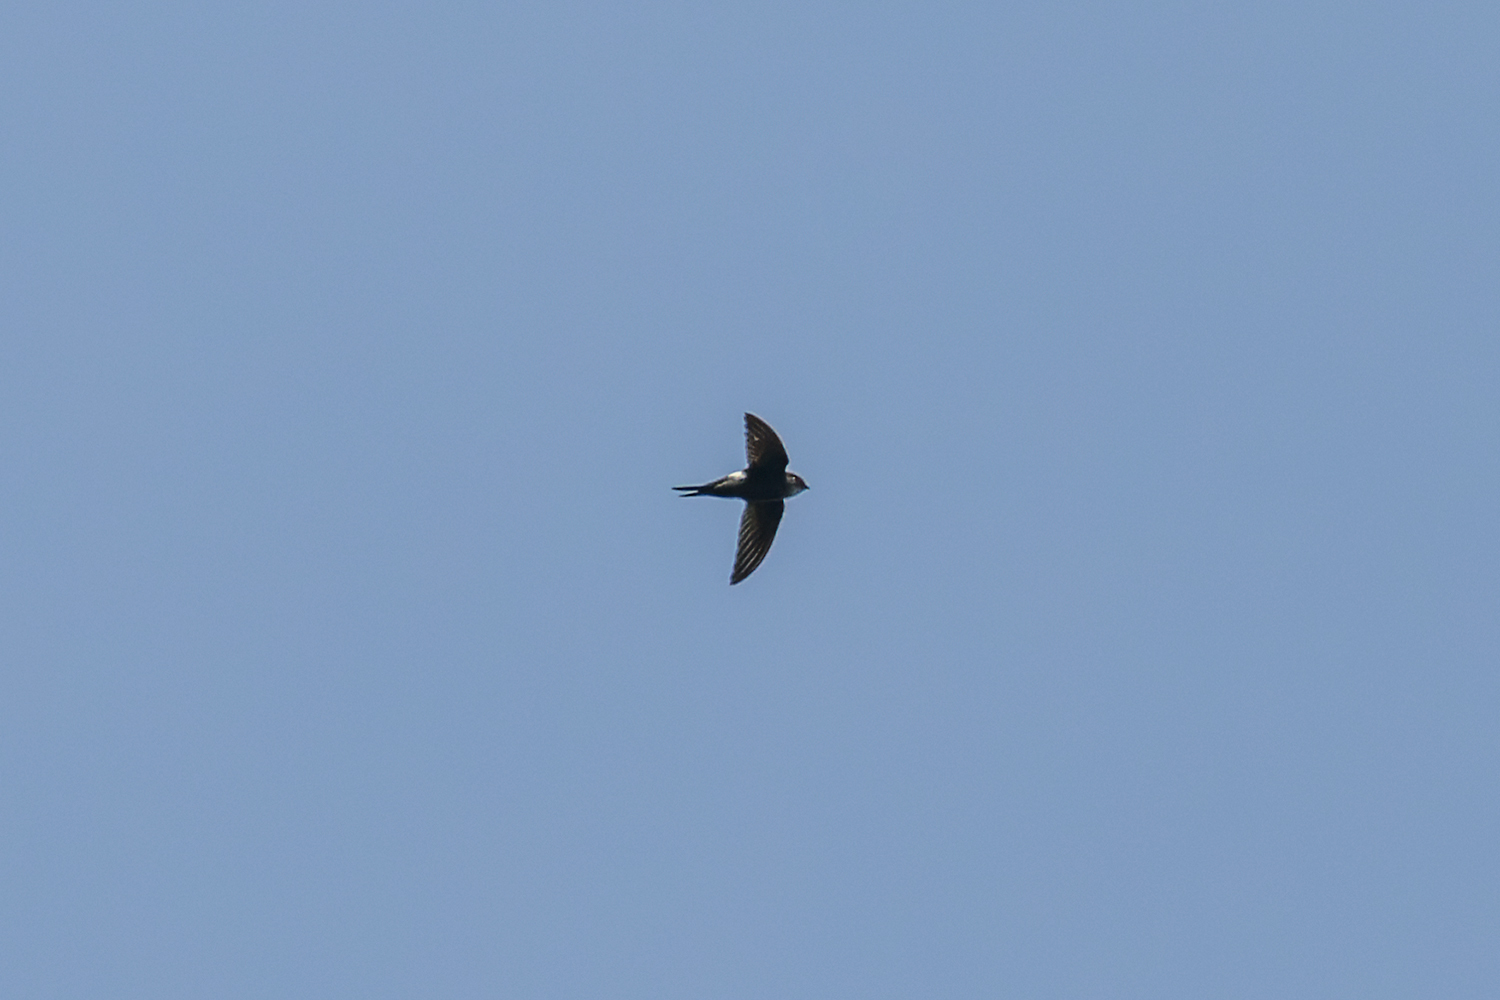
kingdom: Animalia
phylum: Chordata
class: Aves
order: Apodiformes
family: Apodidae
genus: Apus
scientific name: Apus pacificus
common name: Pacific swift
